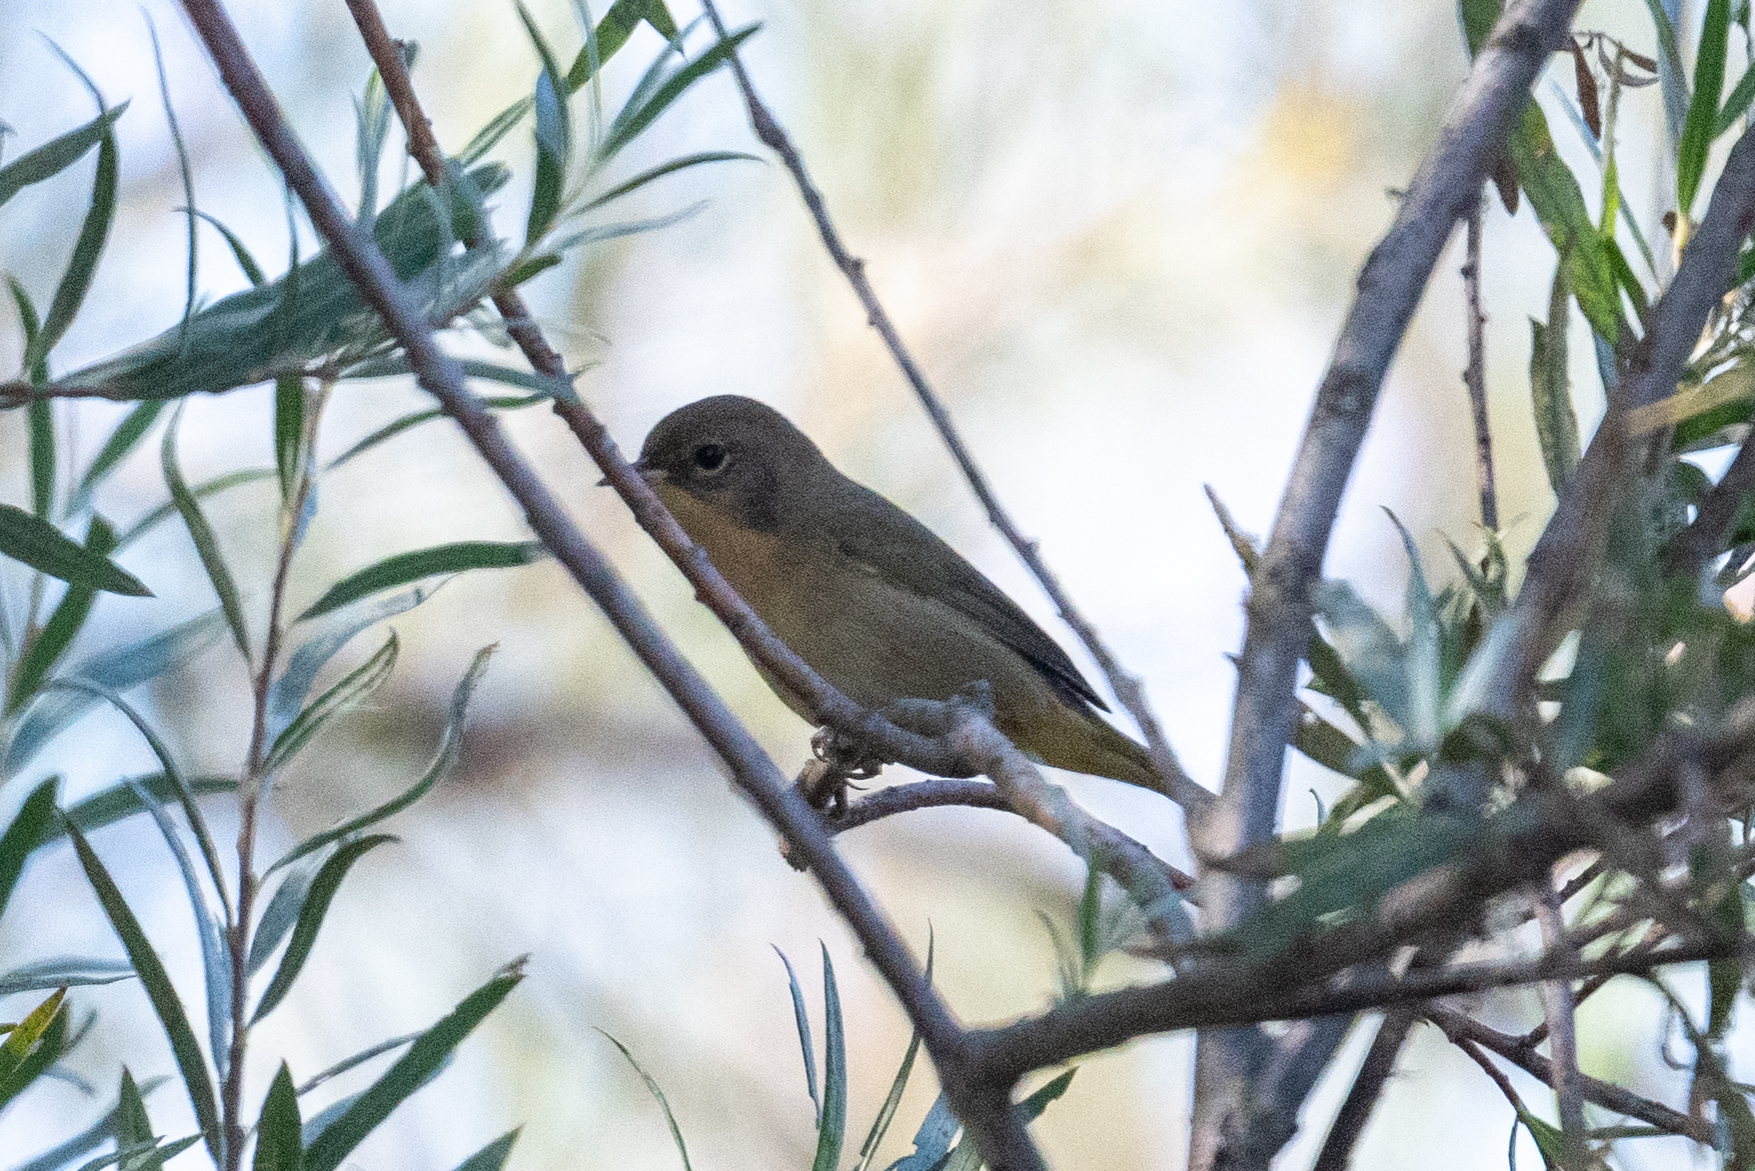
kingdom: Animalia
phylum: Chordata
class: Aves
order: Passeriformes
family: Parulidae
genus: Geothlypis
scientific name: Geothlypis trichas
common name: Common yellowthroat
